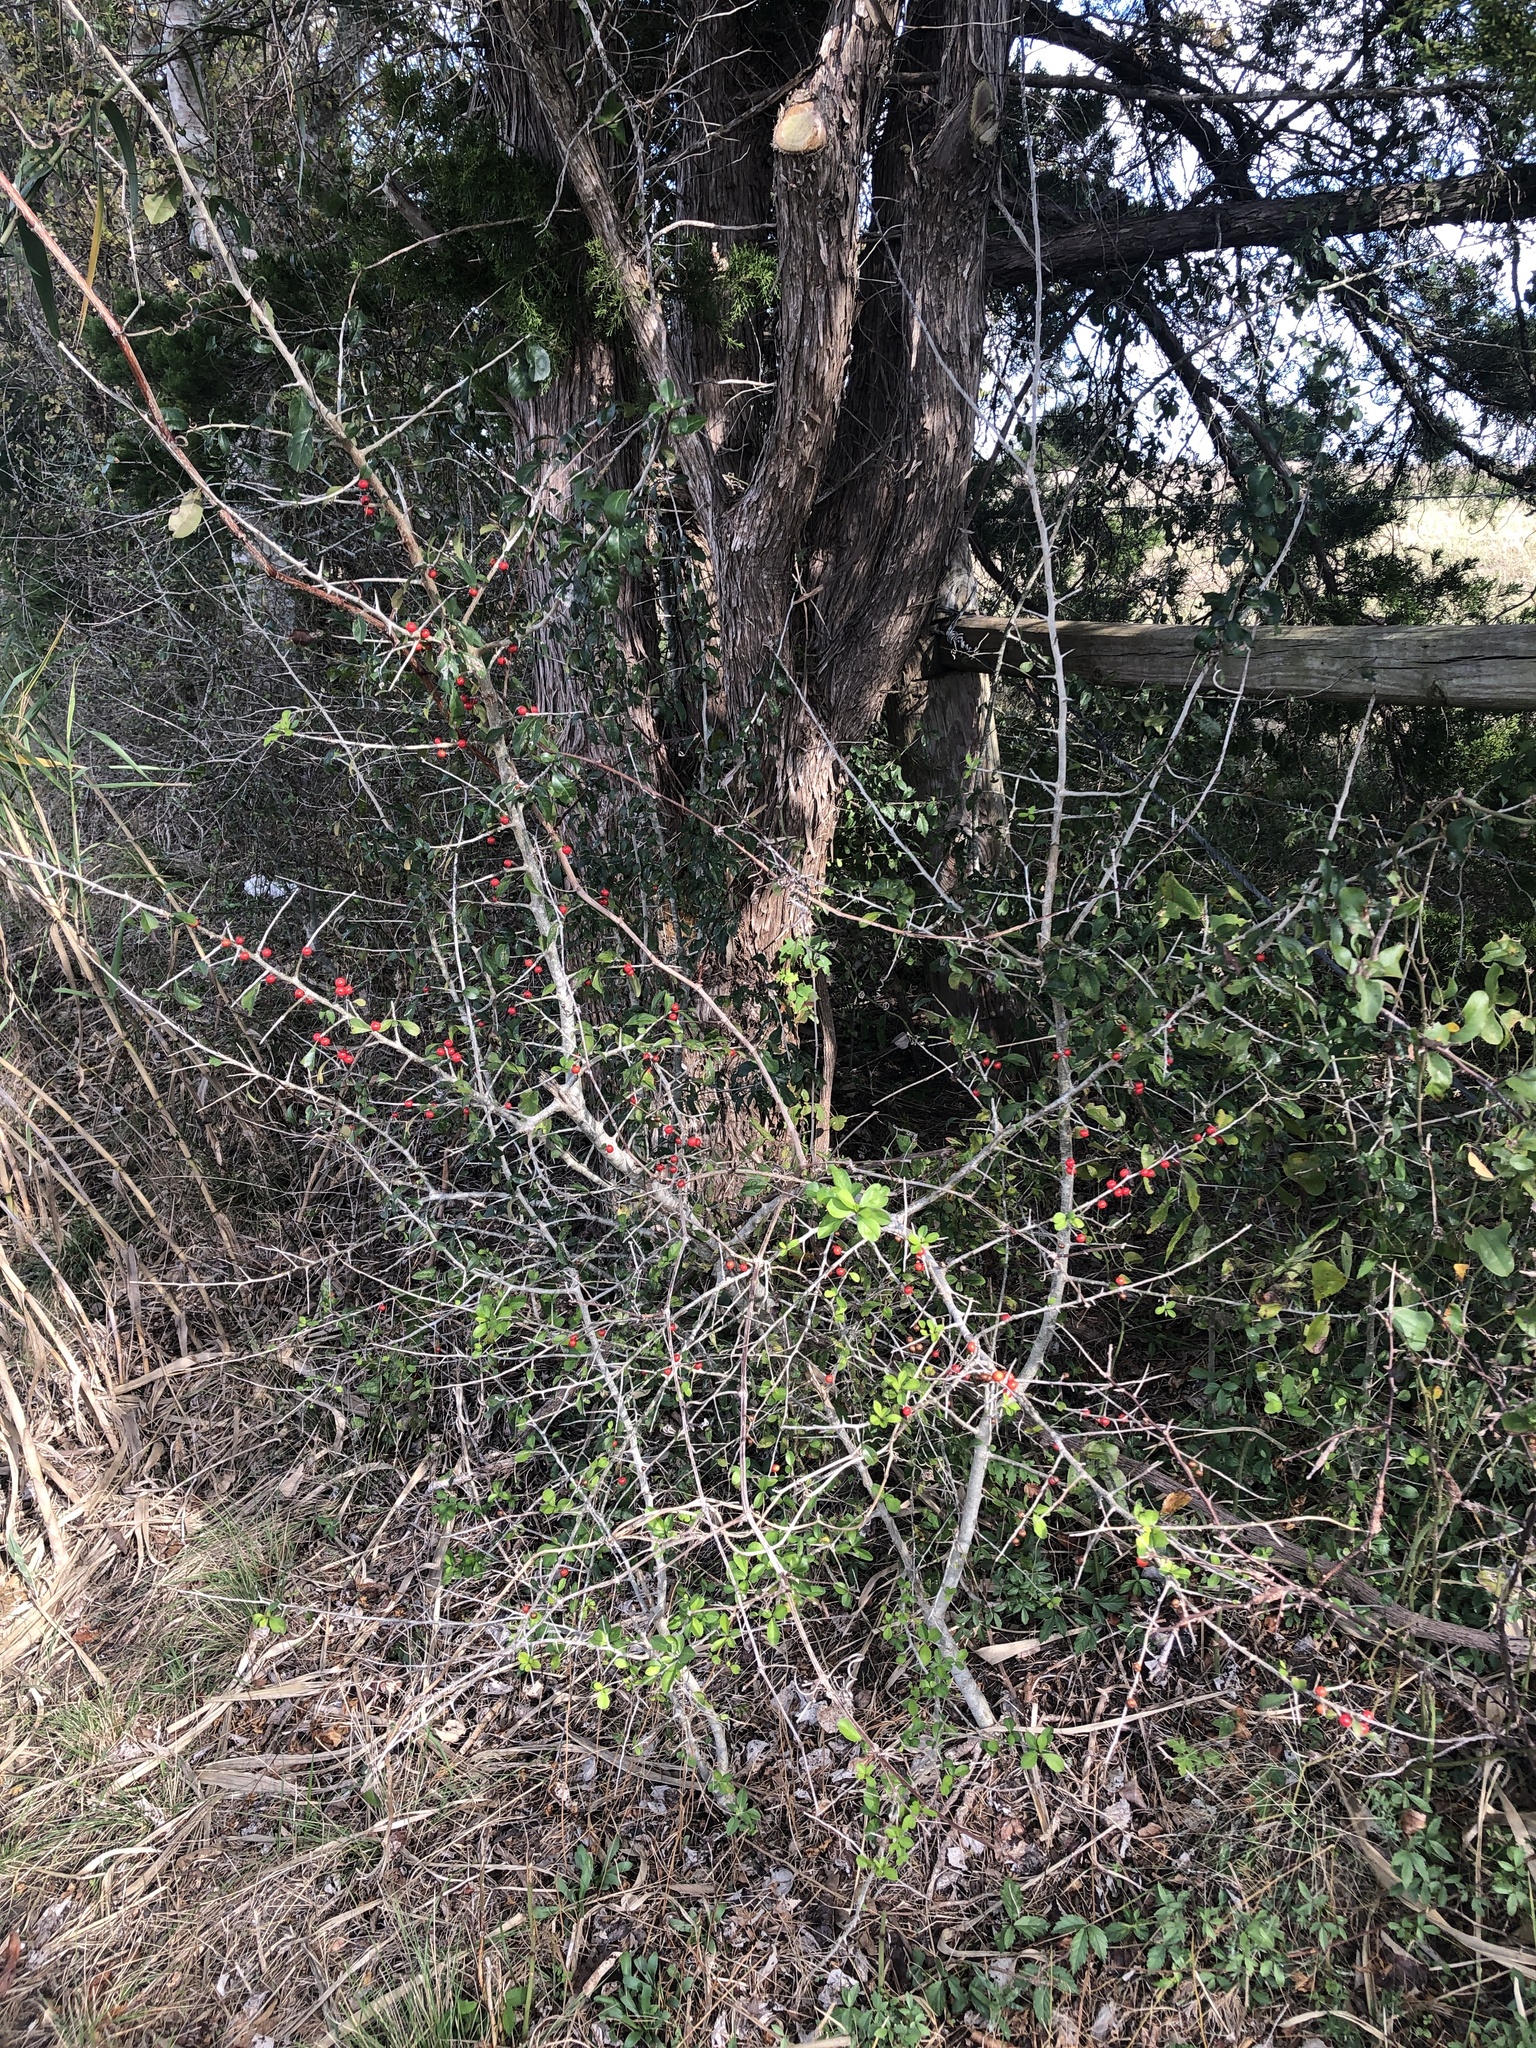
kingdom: Plantae
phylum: Tracheophyta
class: Magnoliopsida
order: Aquifoliales
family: Aquifoliaceae
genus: Ilex
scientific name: Ilex decidua
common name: Possum-haw
